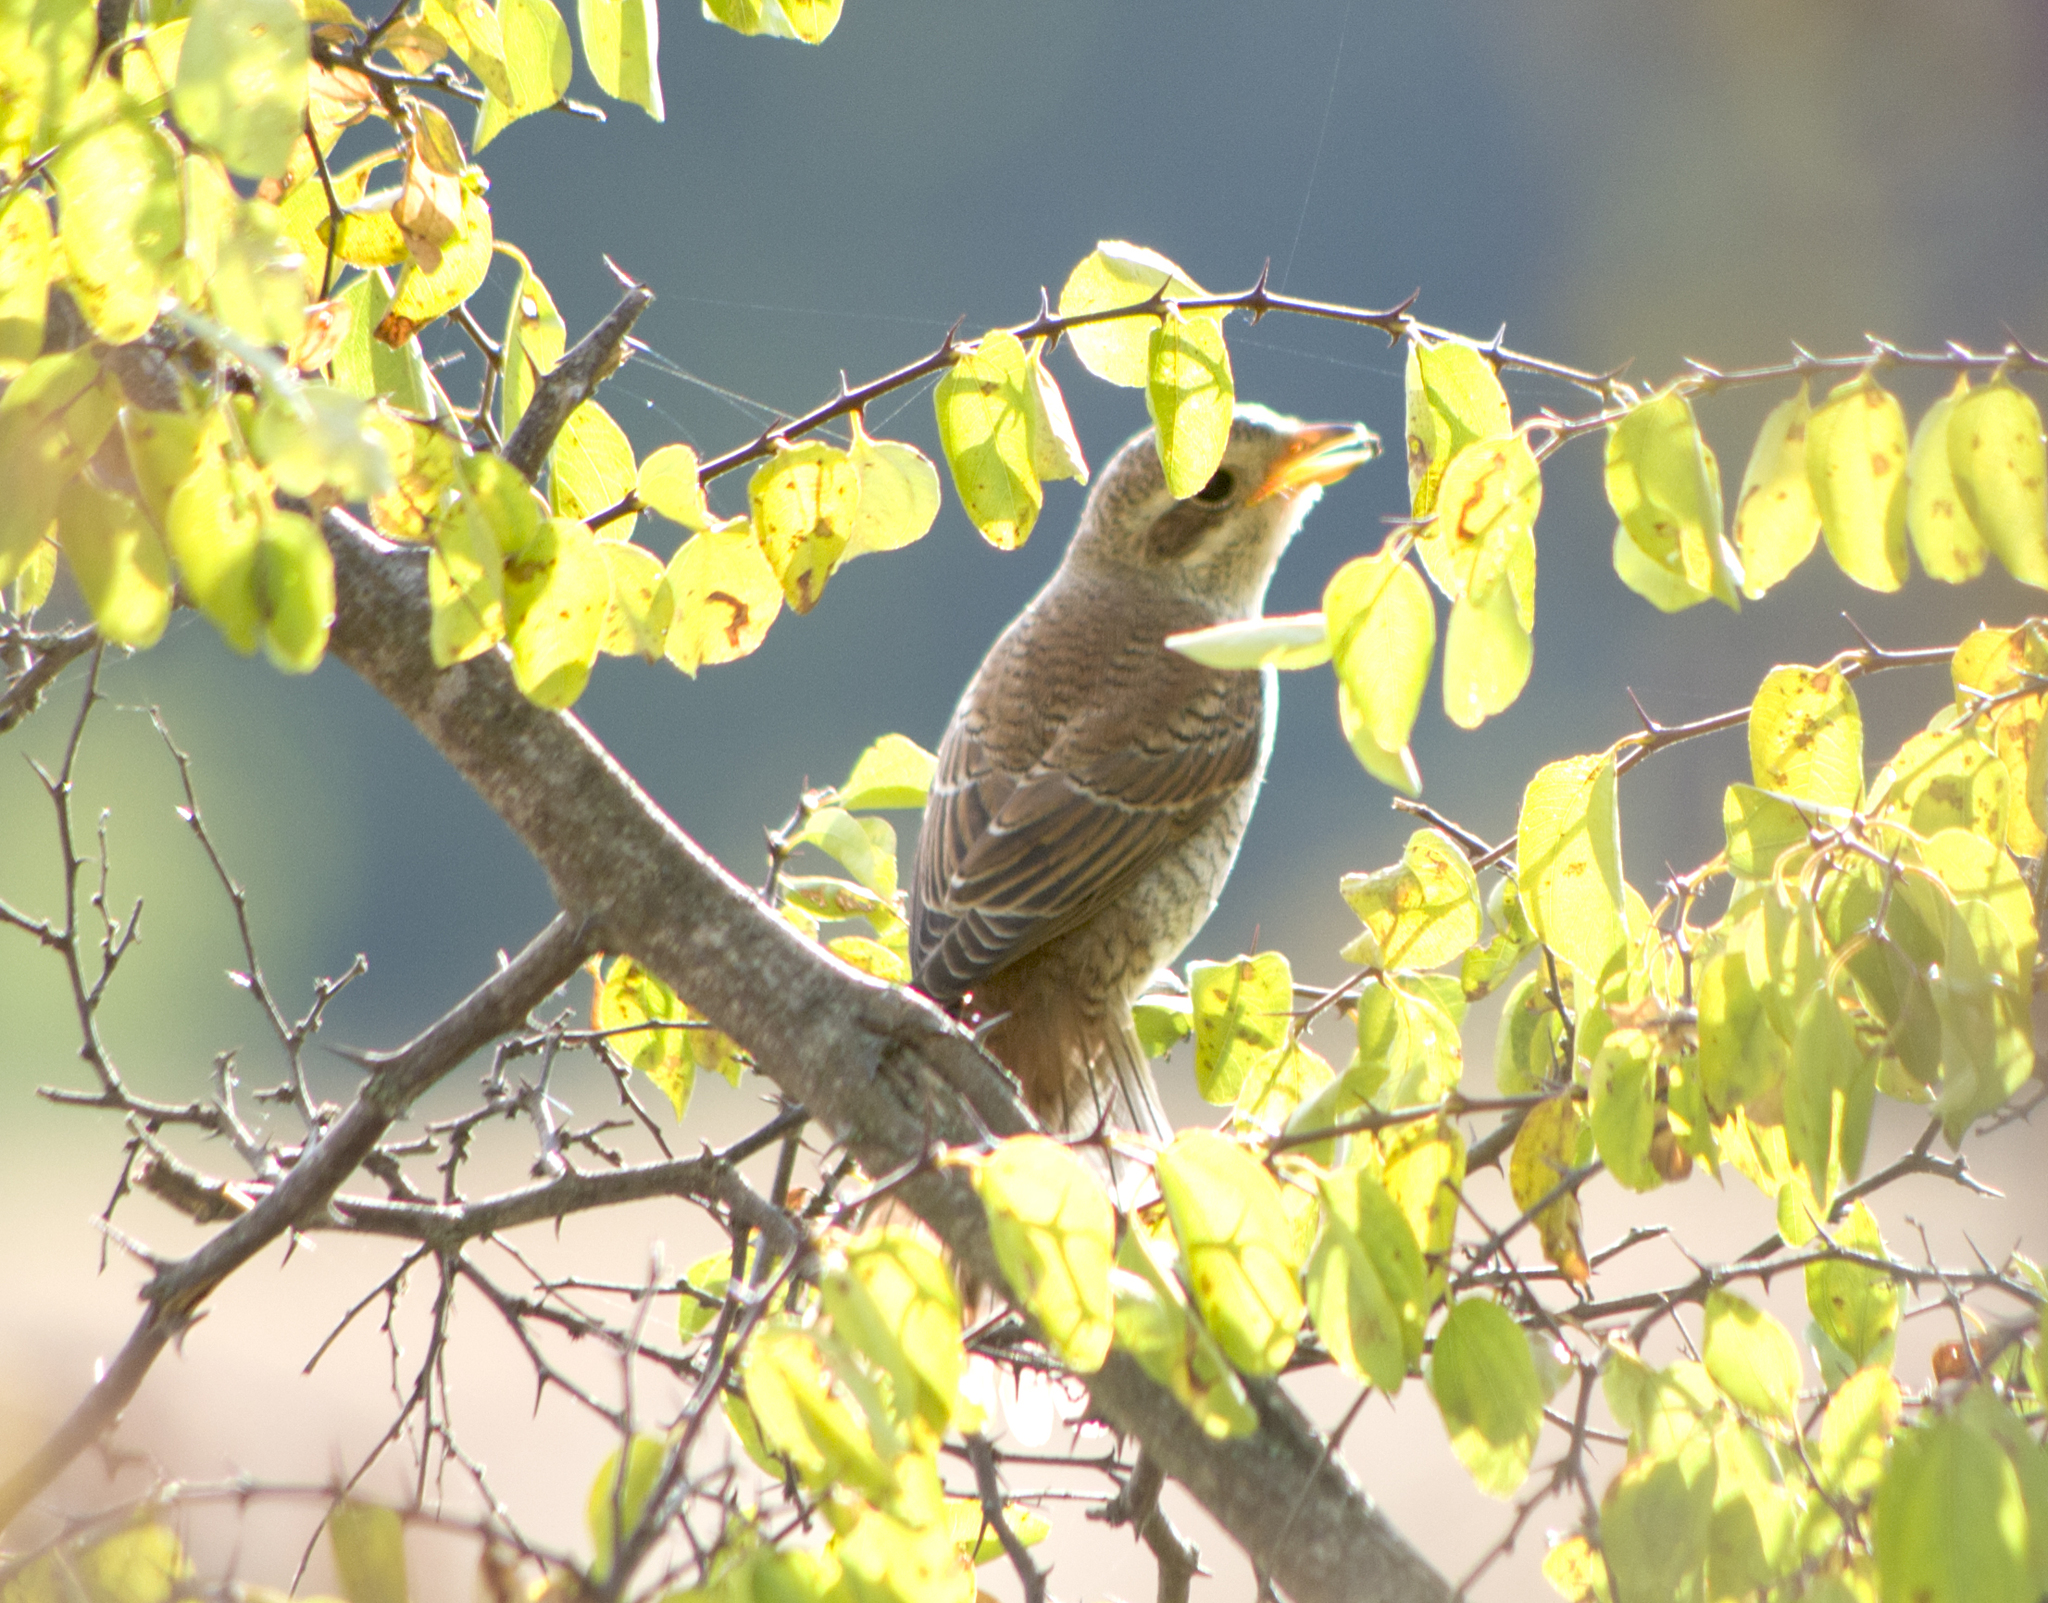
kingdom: Animalia
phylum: Chordata
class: Aves
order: Passeriformes
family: Laniidae
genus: Lanius
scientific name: Lanius collurio
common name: Red-backed shrike
